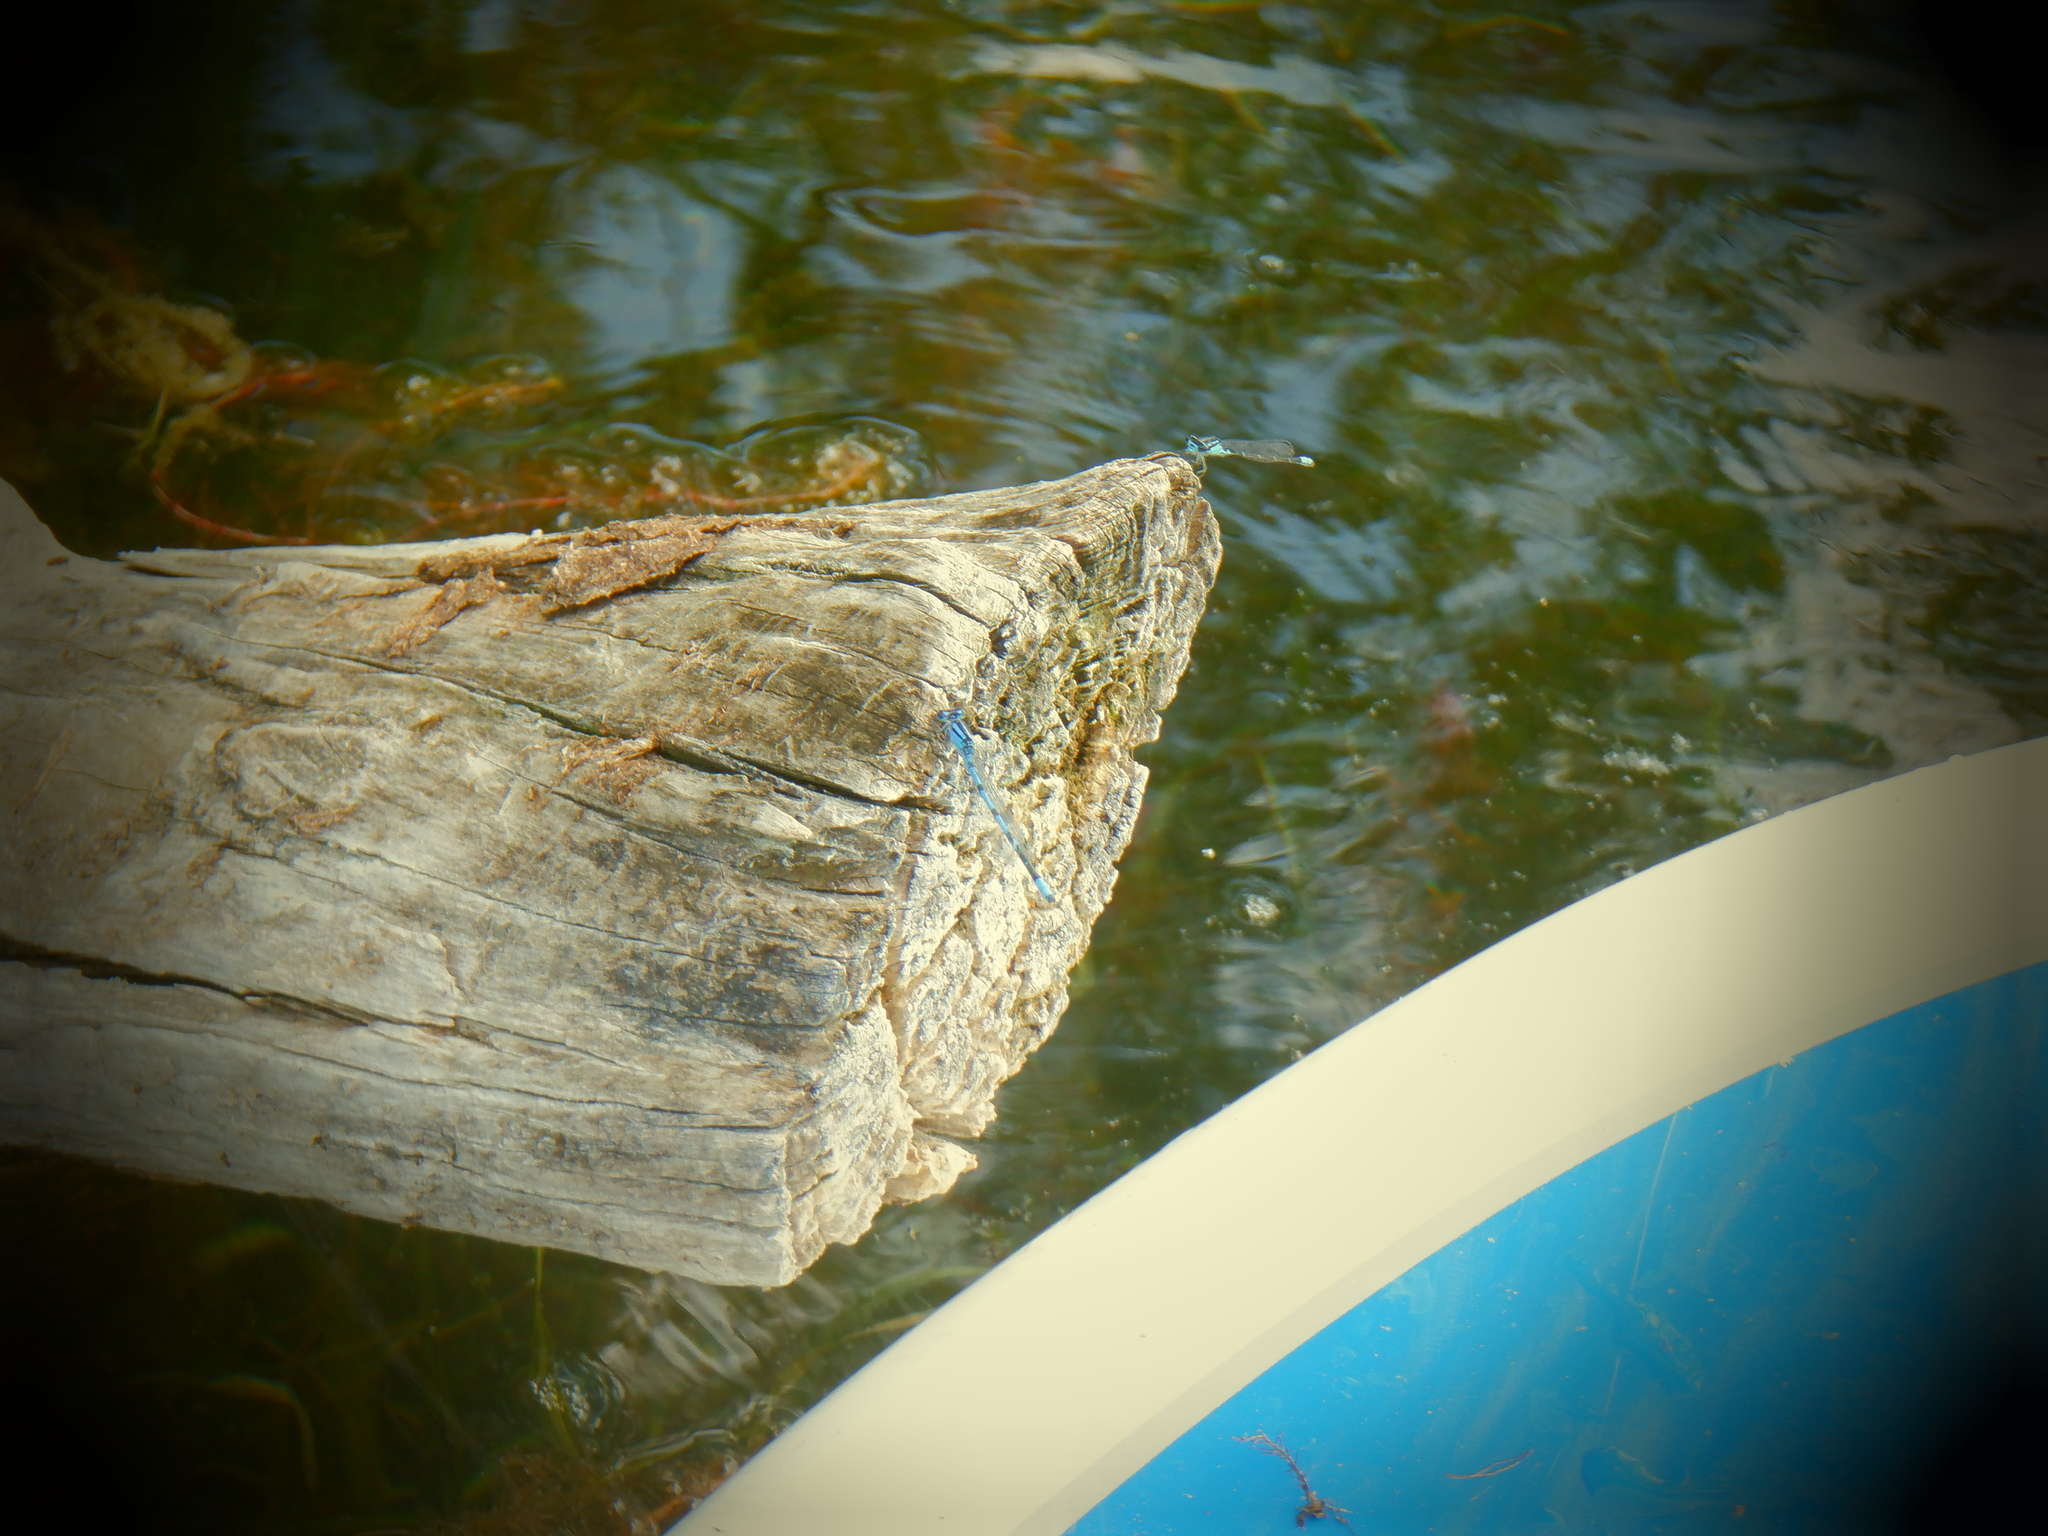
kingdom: Animalia
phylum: Arthropoda
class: Insecta
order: Odonata
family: Coenagrionidae
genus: Enallagma
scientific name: Enallagma
